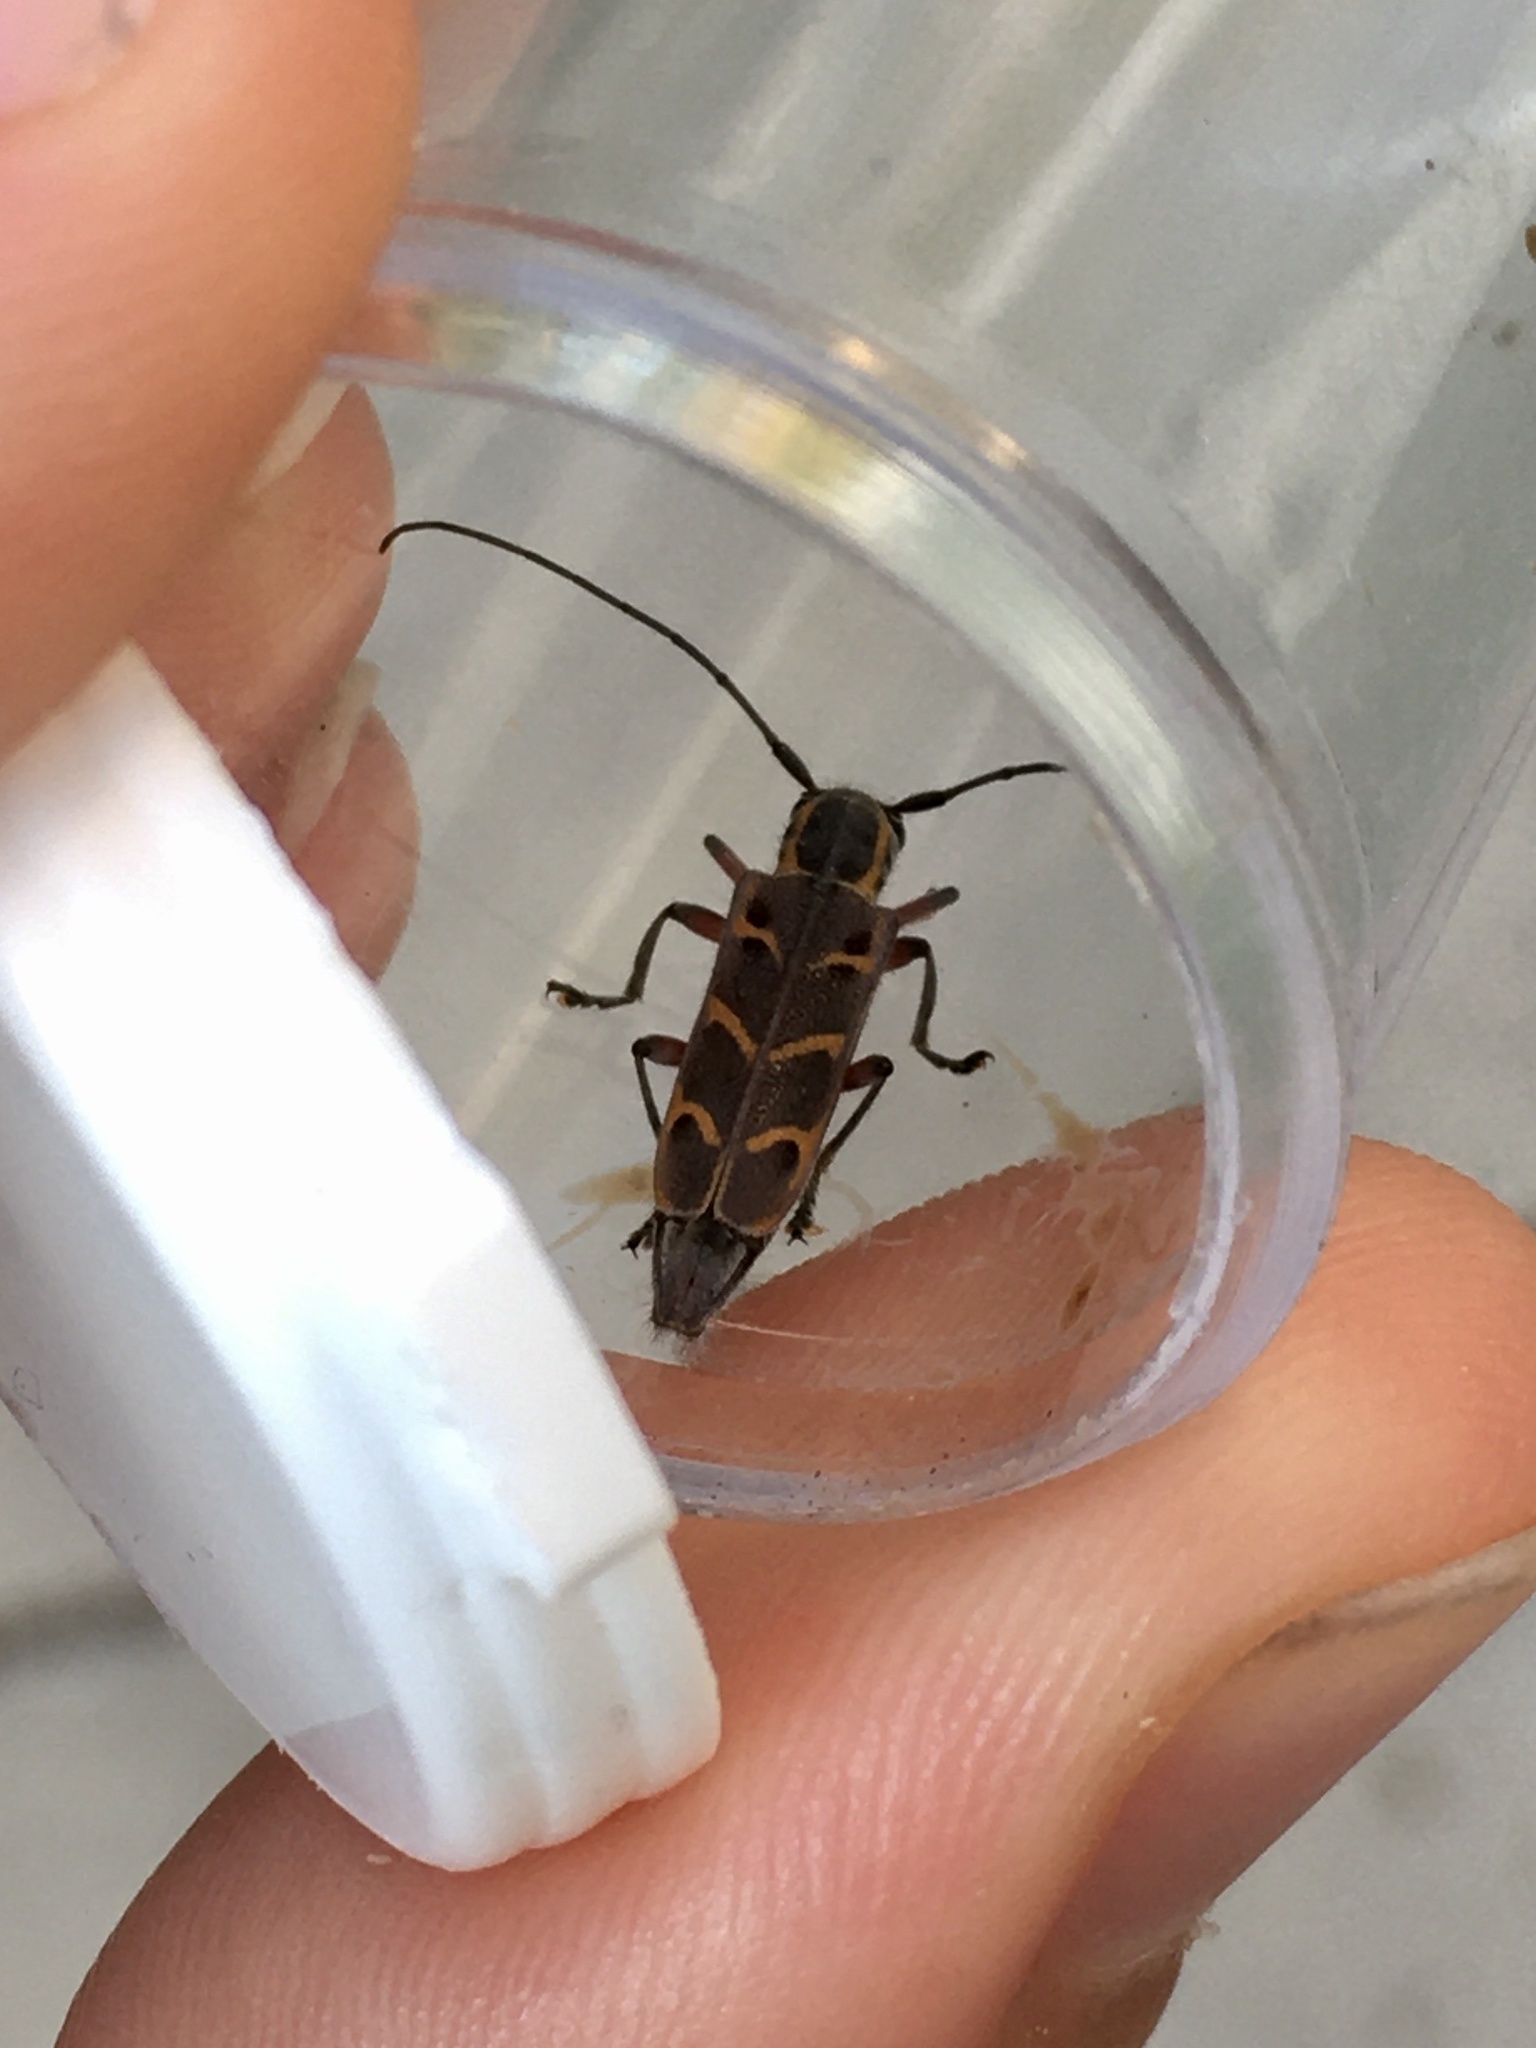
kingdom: Animalia
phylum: Arthropoda
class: Insecta
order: Coleoptera
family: Cerambycidae
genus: Saperda
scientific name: Saperda tridentata
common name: Elm borer
